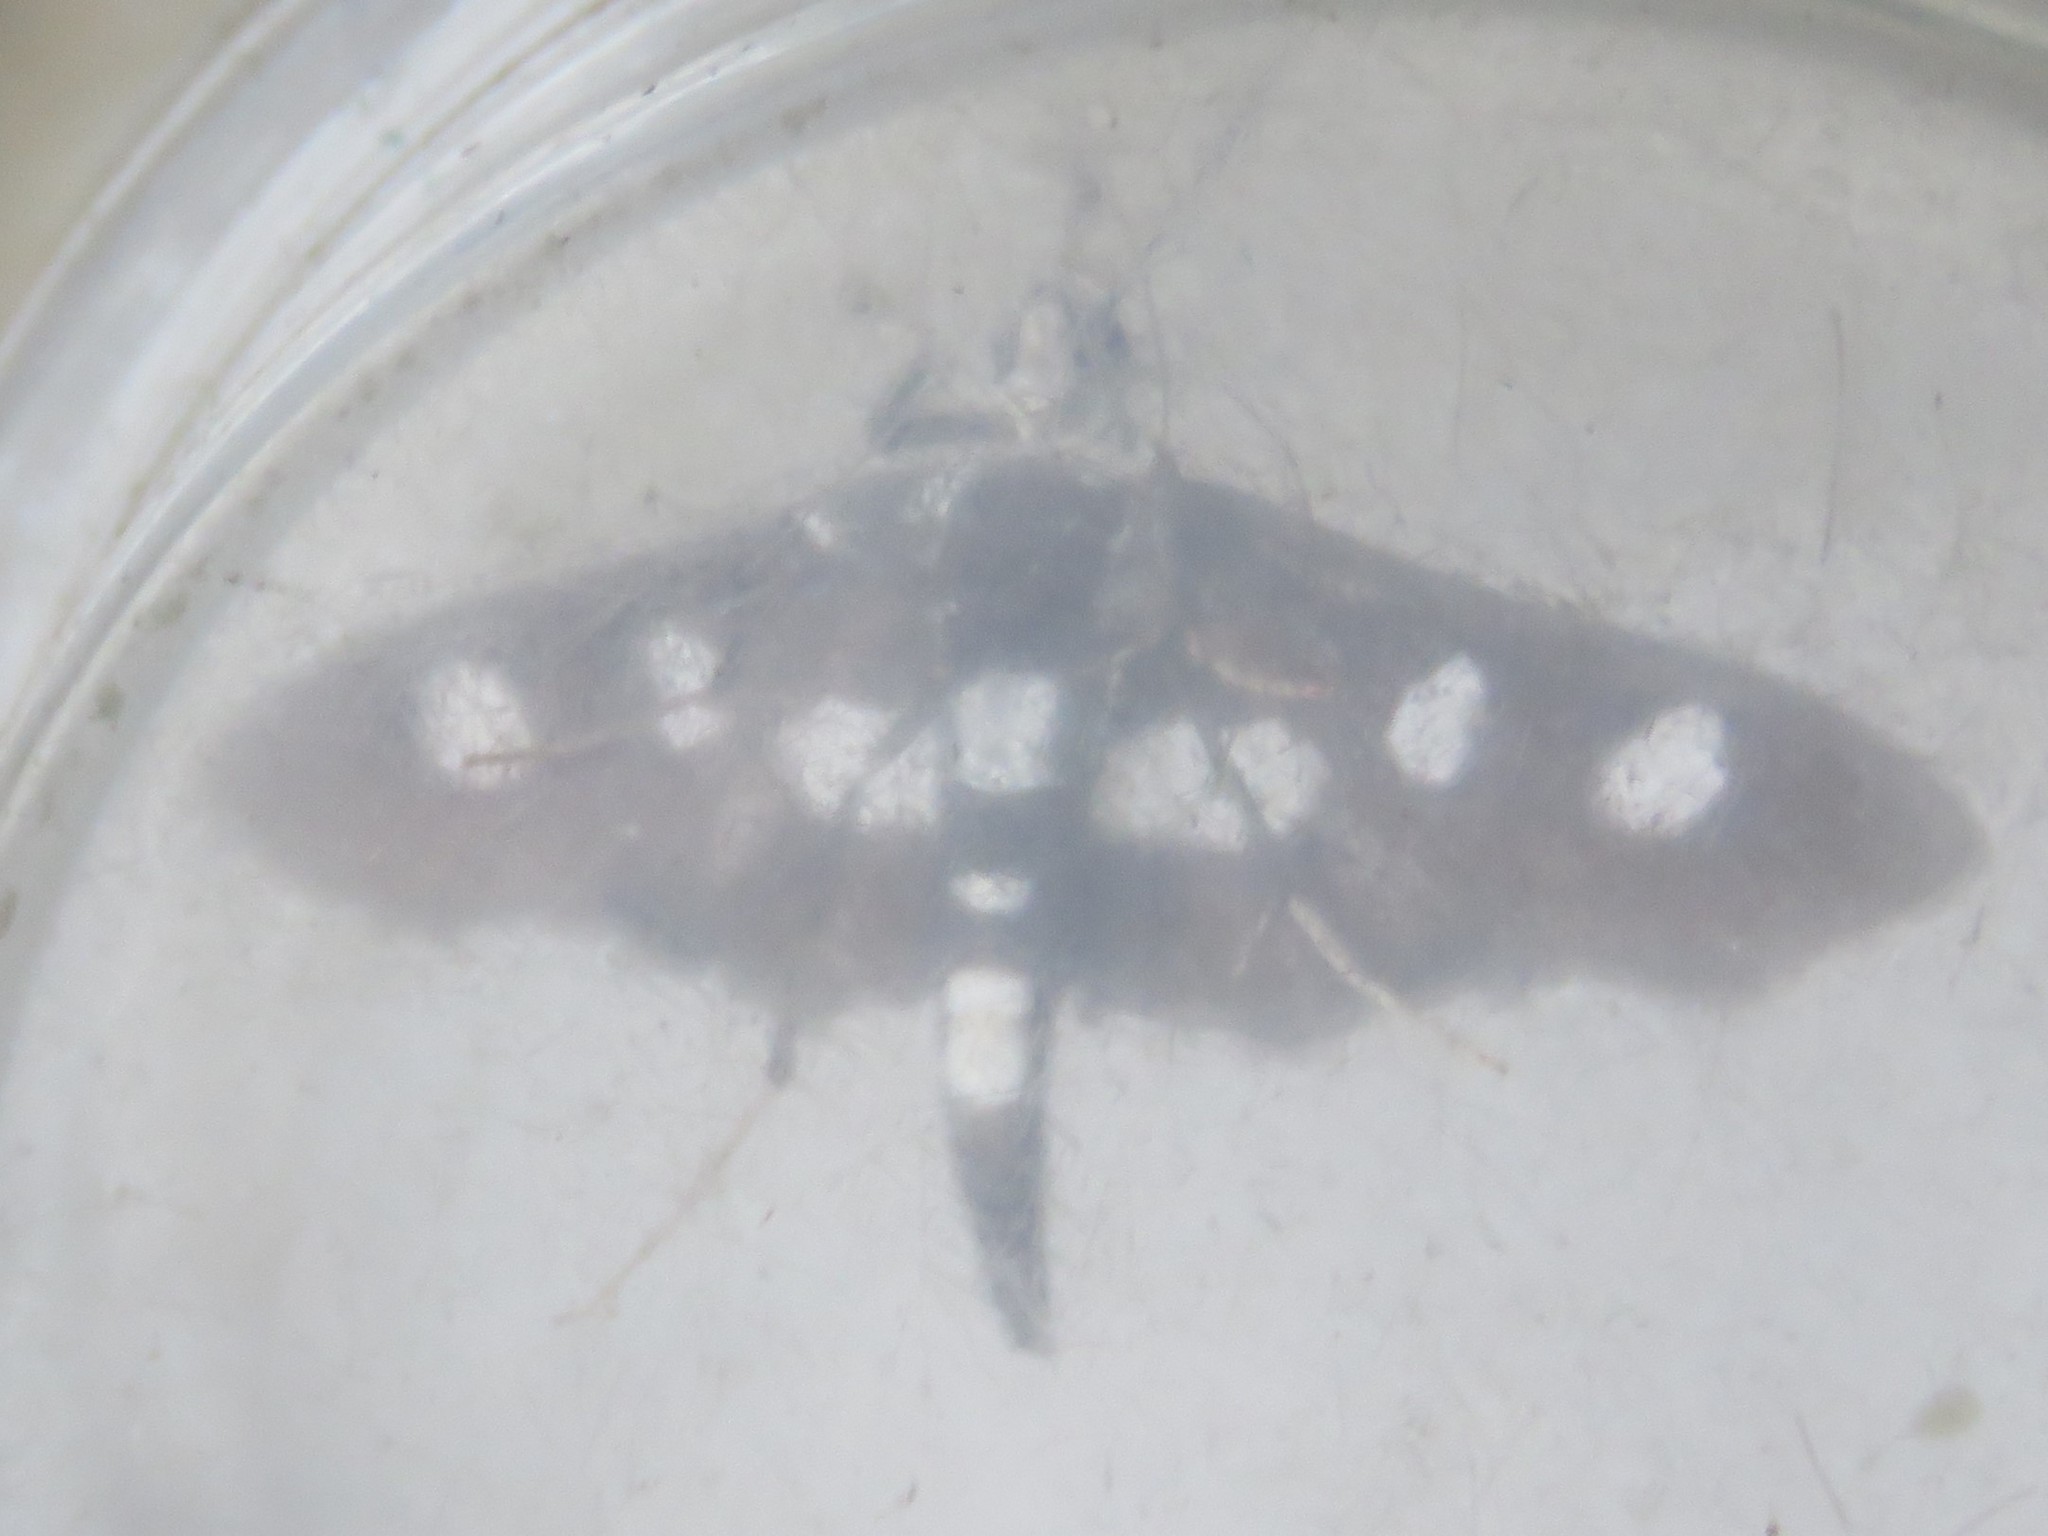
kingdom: Animalia
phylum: Arthropoda
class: Insecta
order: Lepidoptera
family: Crambidae
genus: Desmia
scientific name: Desmia funeralis
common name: Grape leaf folder moth
